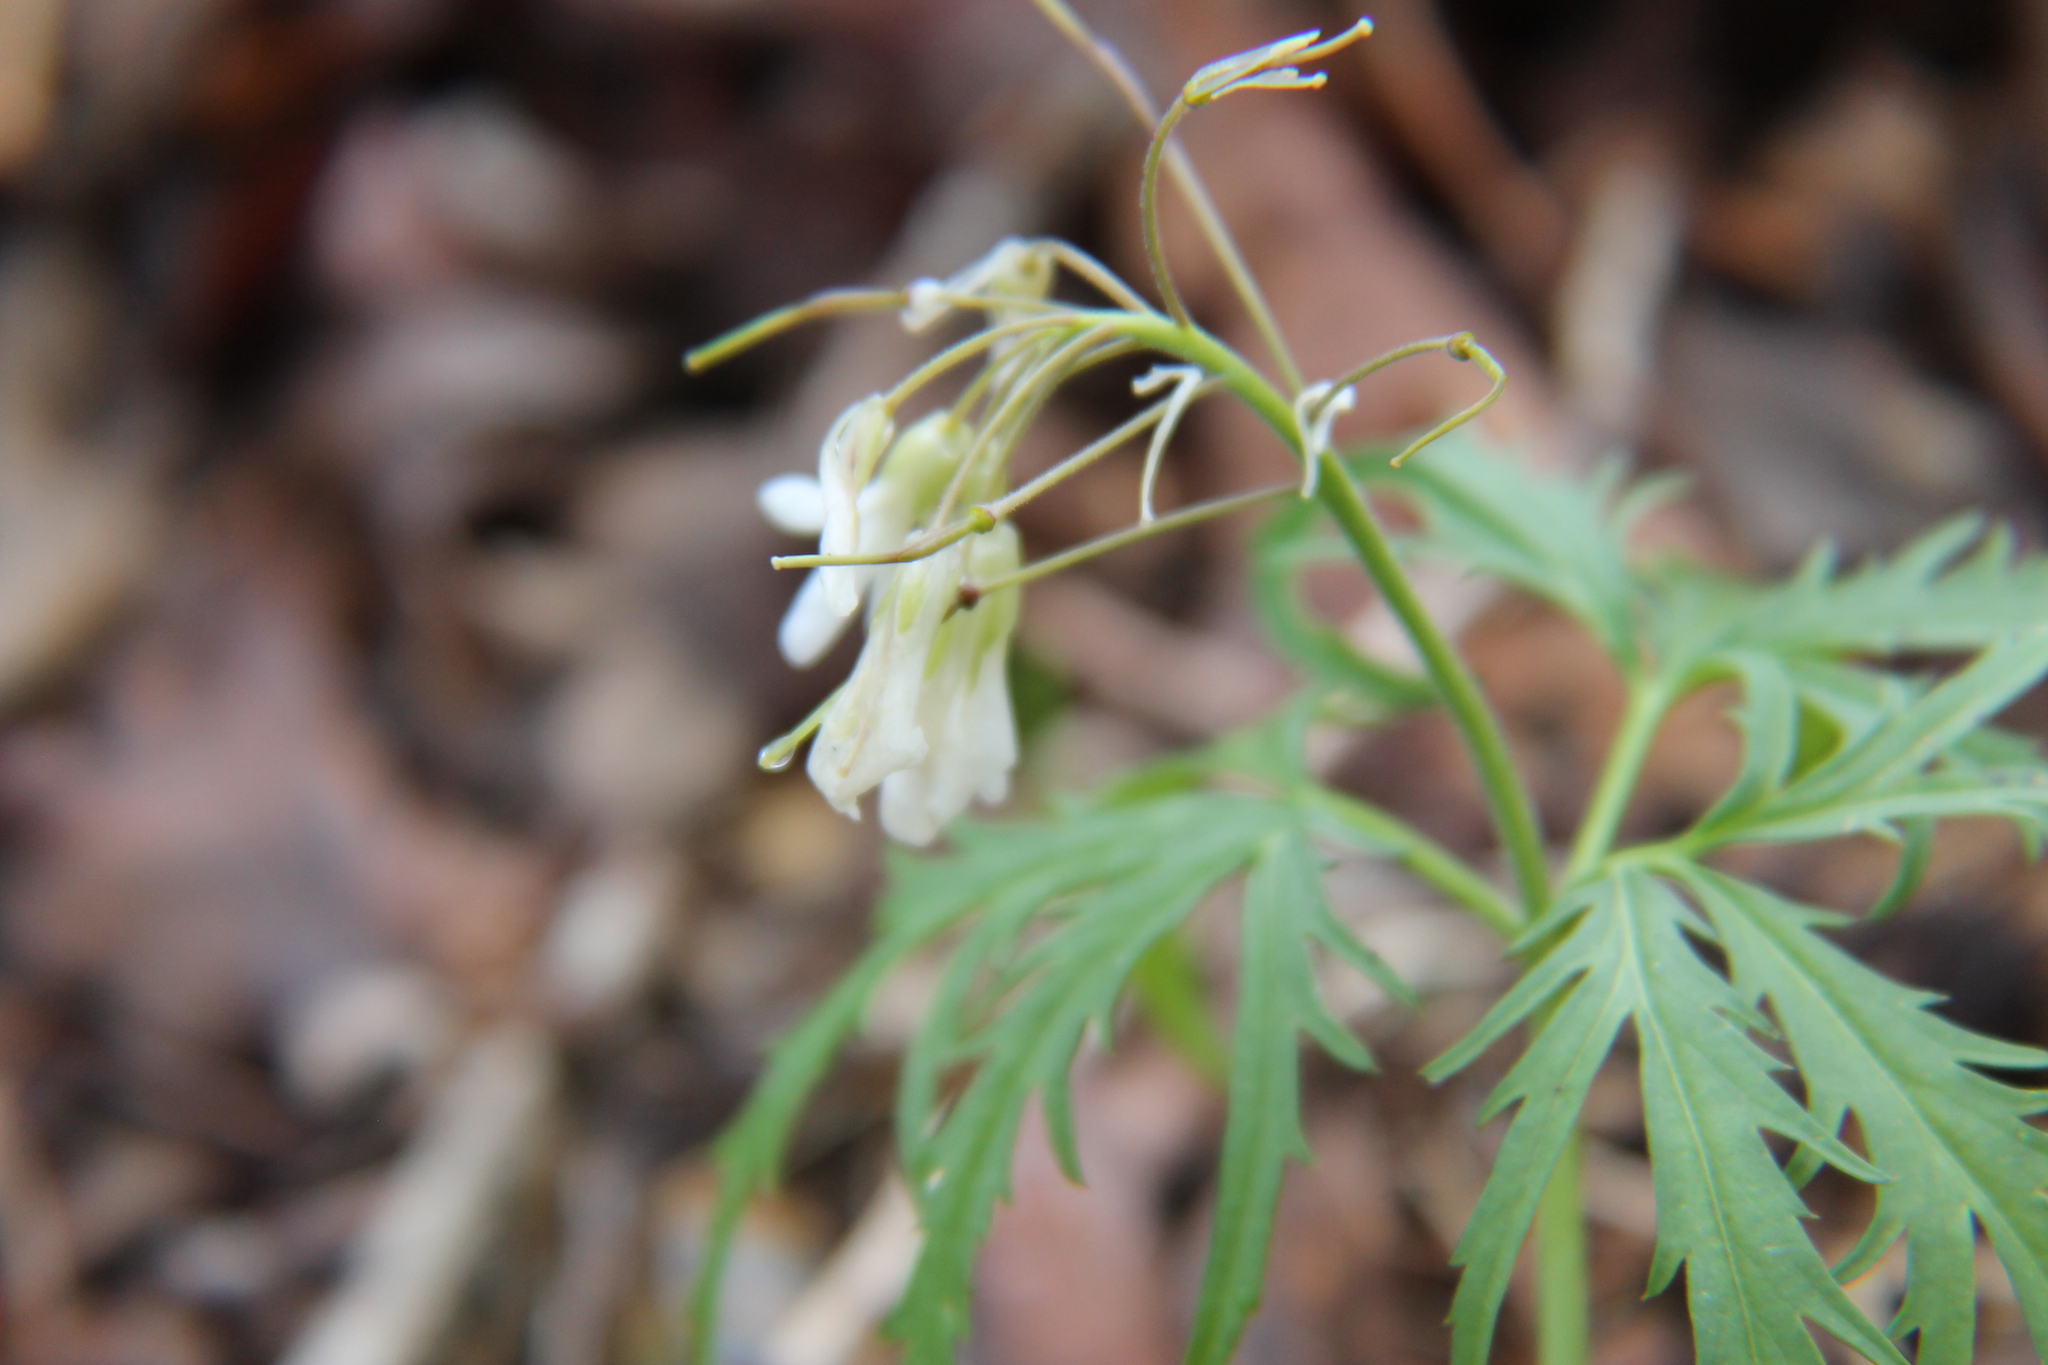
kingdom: Plantae
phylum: Tracheophyta
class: Magnoliopsida
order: Brassicales
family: Brassicaceae
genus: Cardamine
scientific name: Cardamine concatenata
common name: Cut-leaf toothcup
